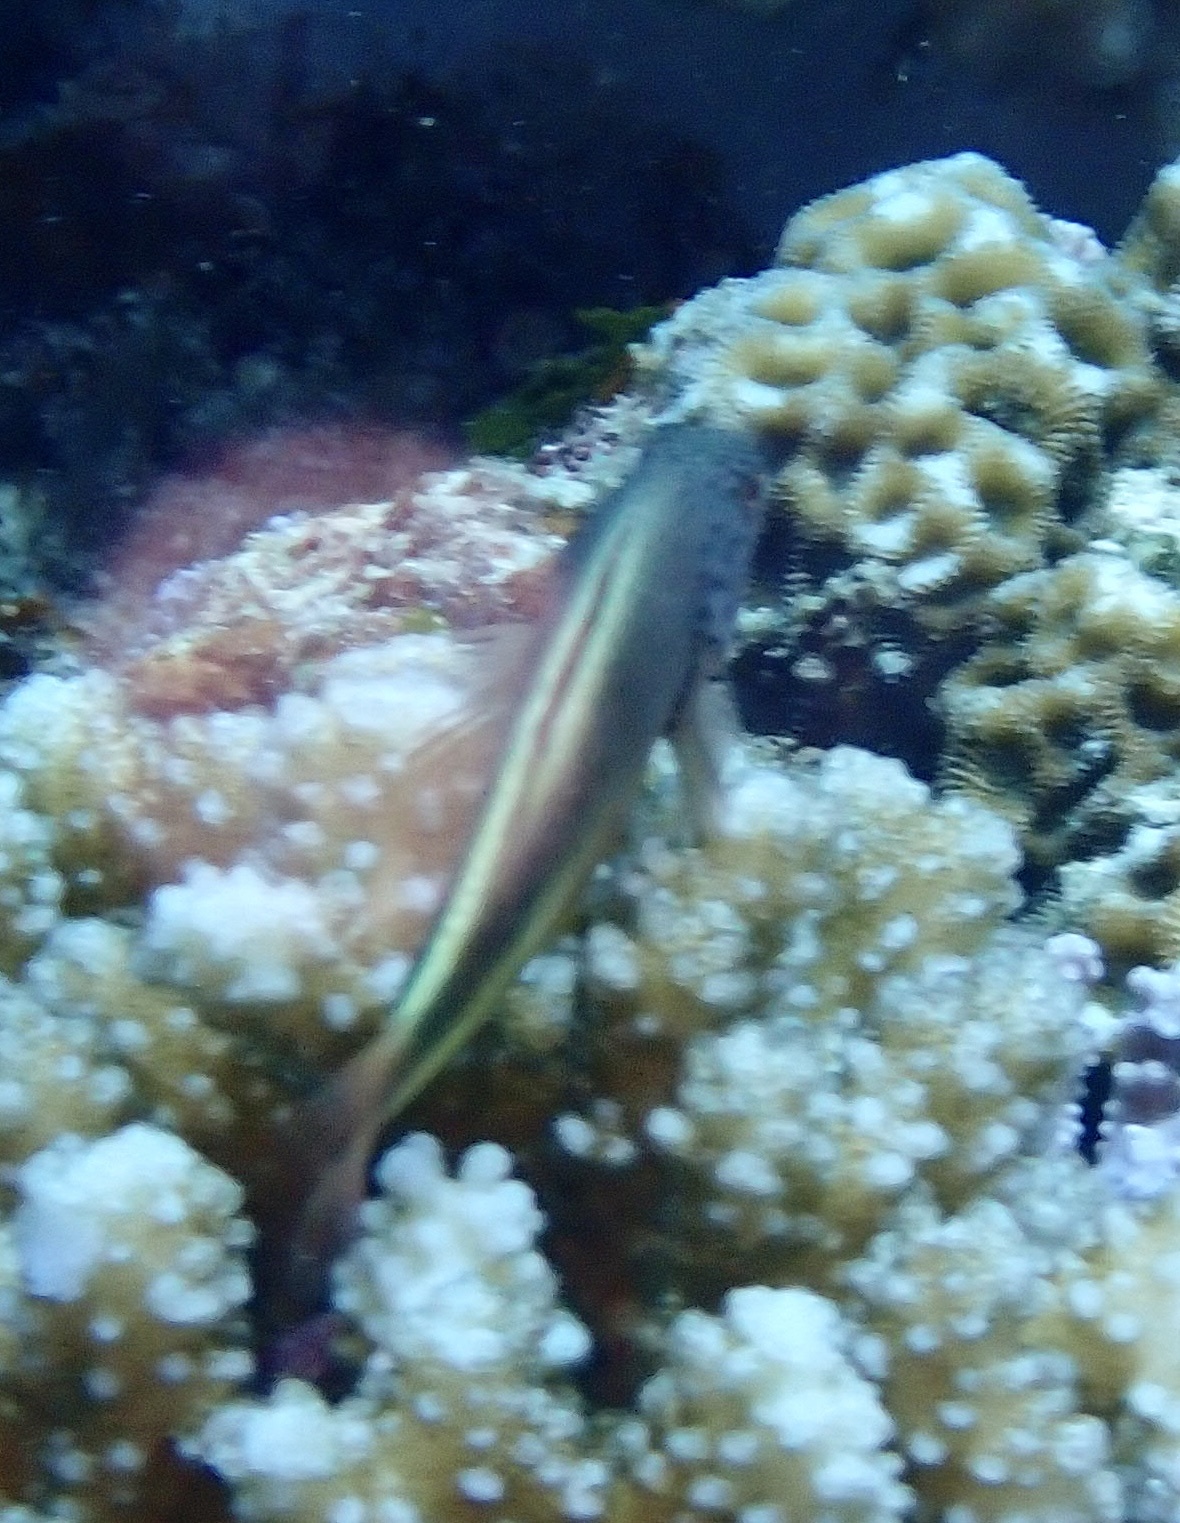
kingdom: Animalia
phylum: Chordata
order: Perciformes
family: Cirrhitidae
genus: Paracirrhites
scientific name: Paracirrhites forsteri
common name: Freckled hawkfish
